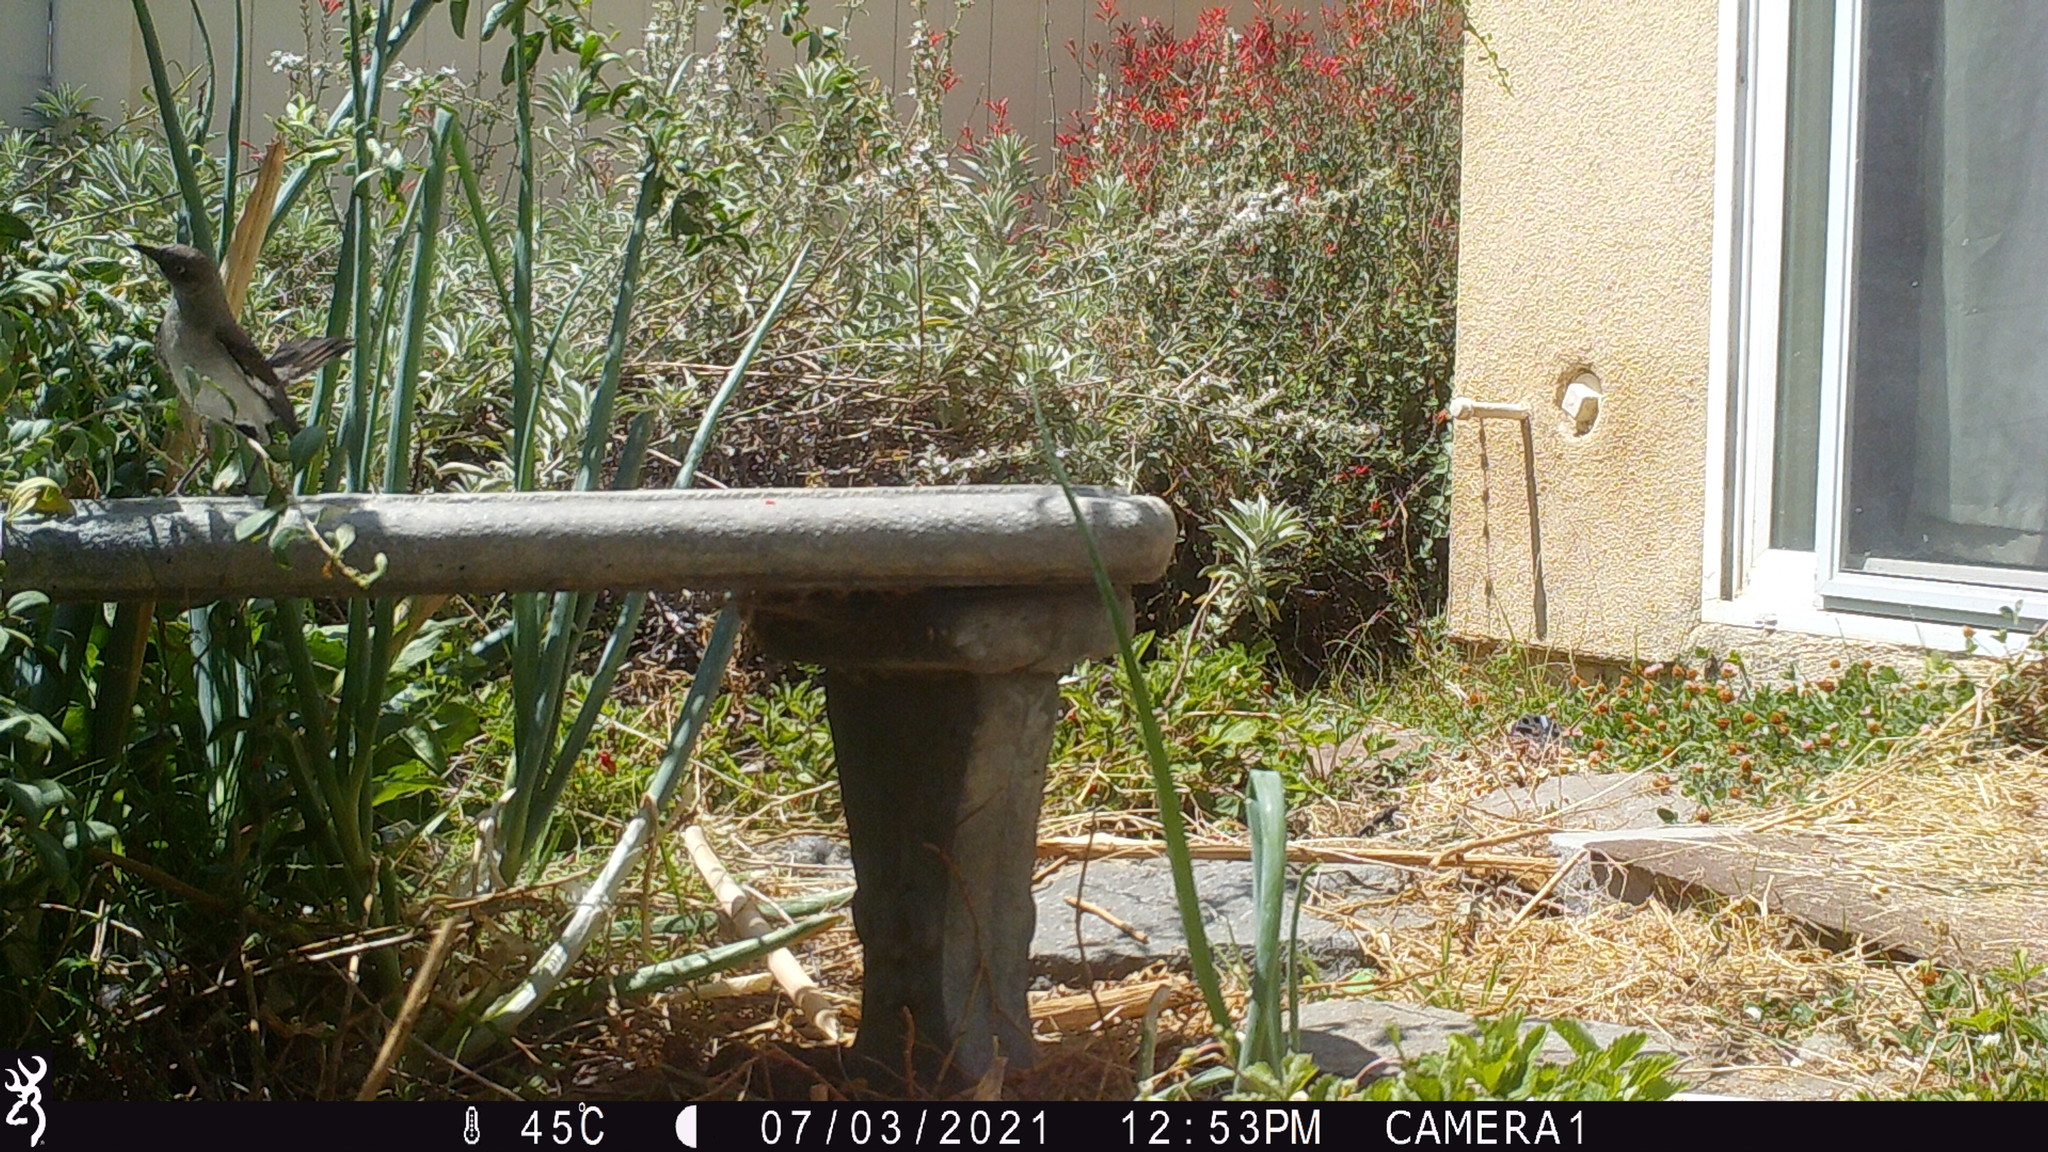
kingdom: Animalia
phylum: Chordata
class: Aves
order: Passeriformes
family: Mimidae
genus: Mimus
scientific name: Mimus polyglottos
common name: Northern mockingbird
